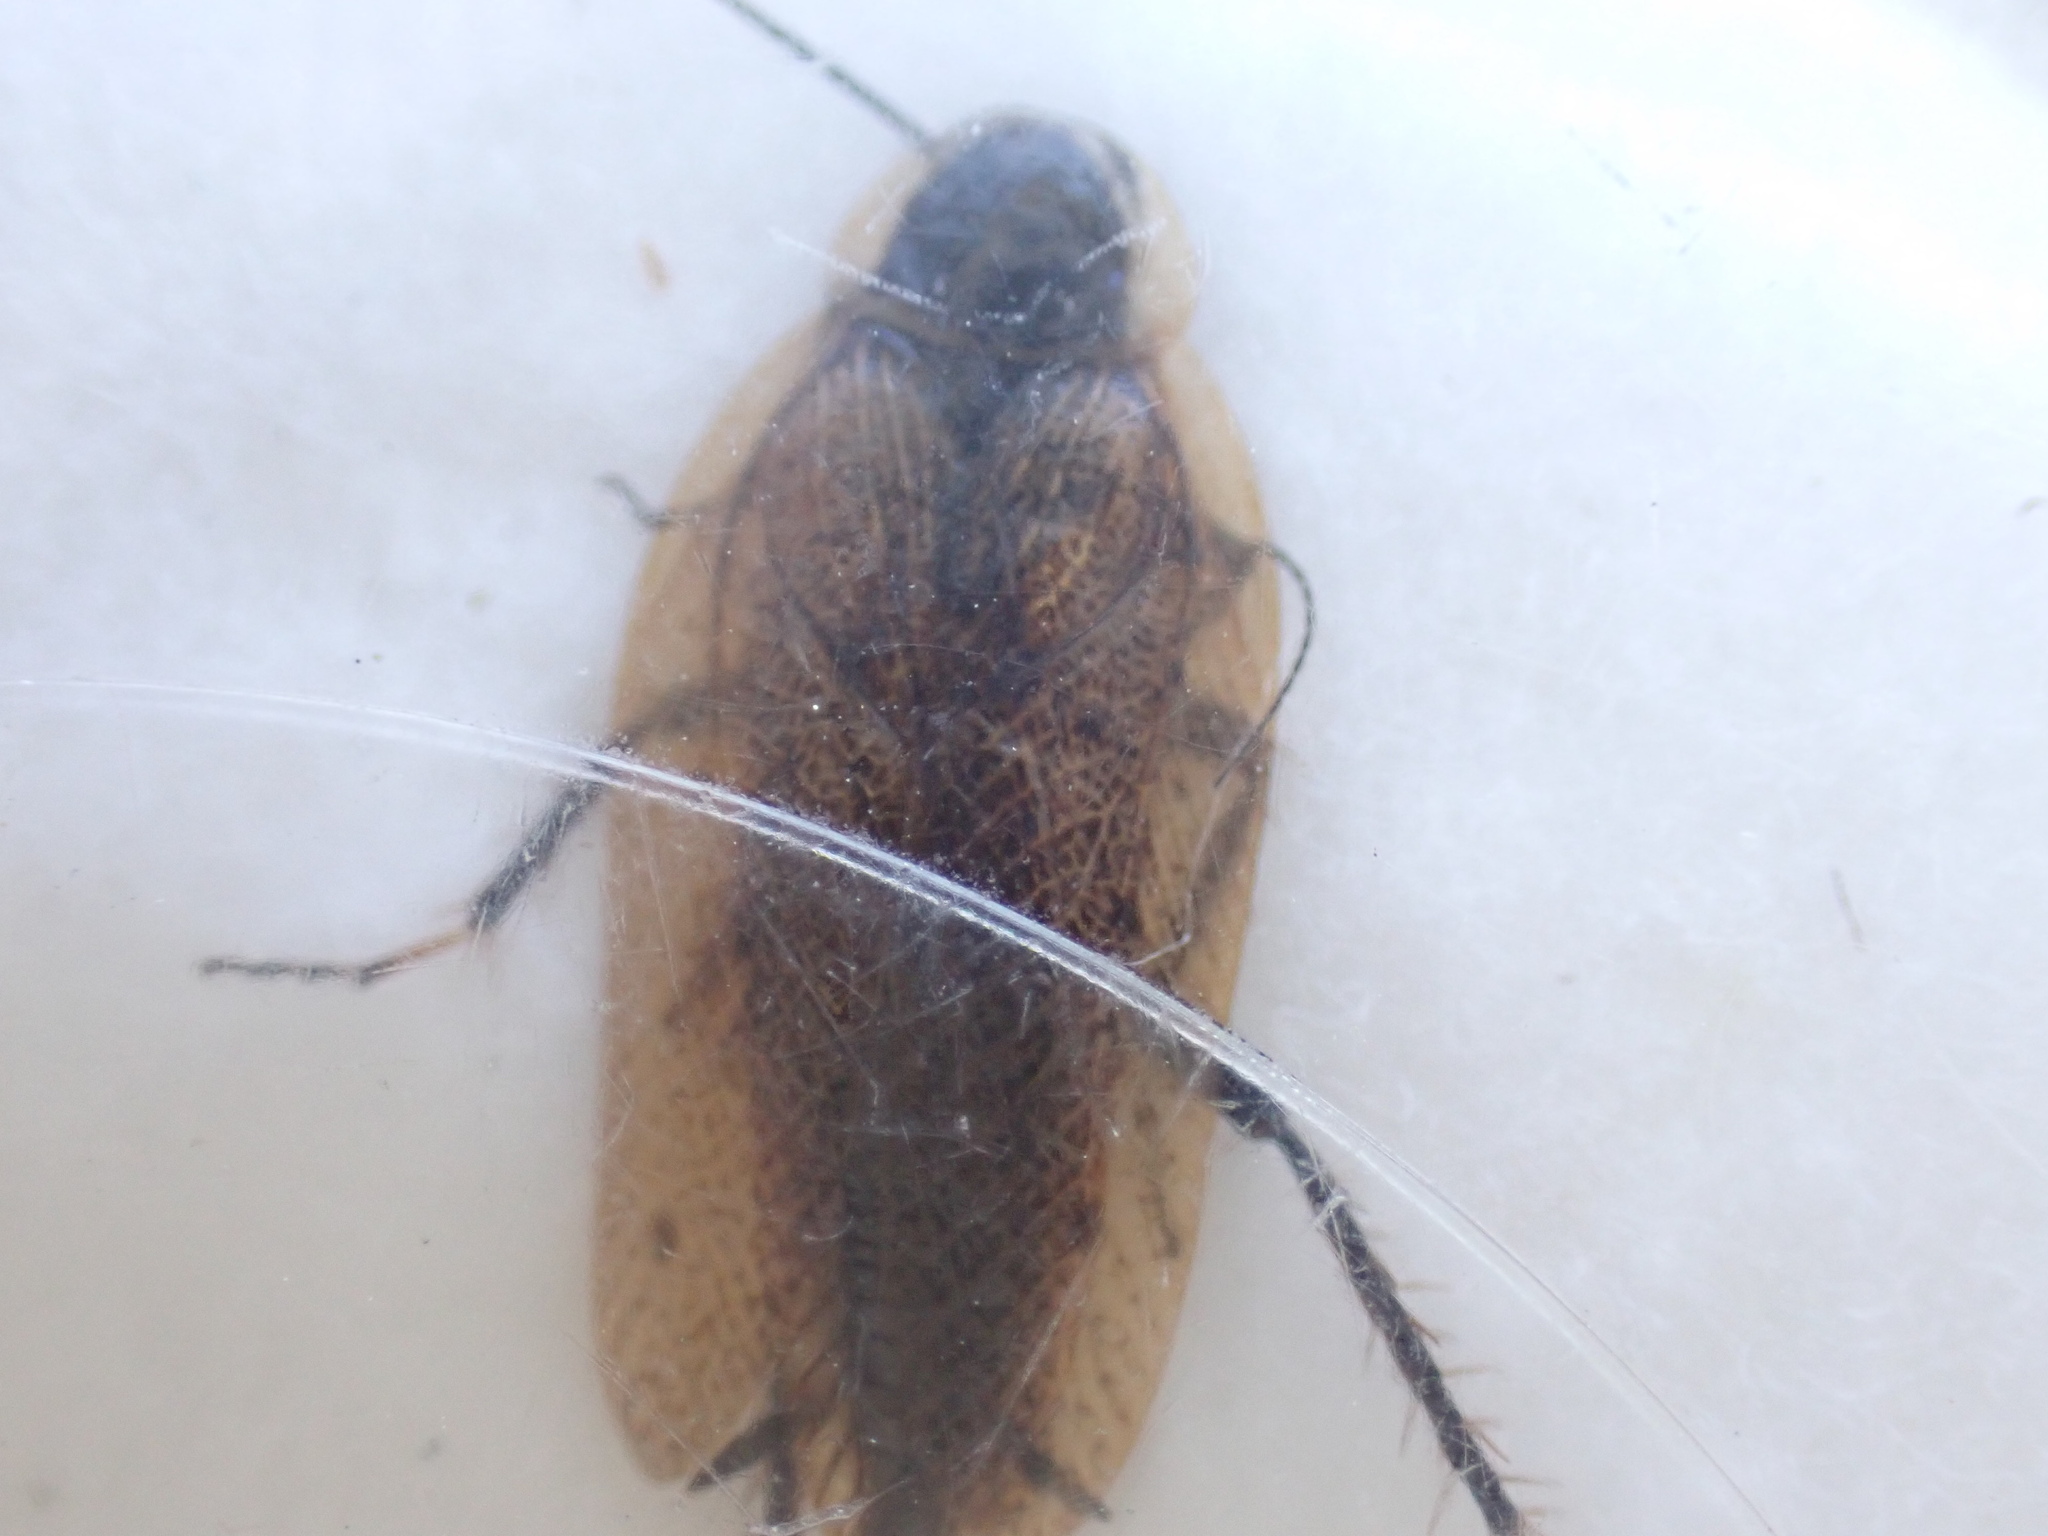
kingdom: Animalia
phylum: Arthropoda
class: Insecta
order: Blattodea
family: Ectobiidae
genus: Ectobius
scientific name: Ectobius sylvestris
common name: Forest cockroach
